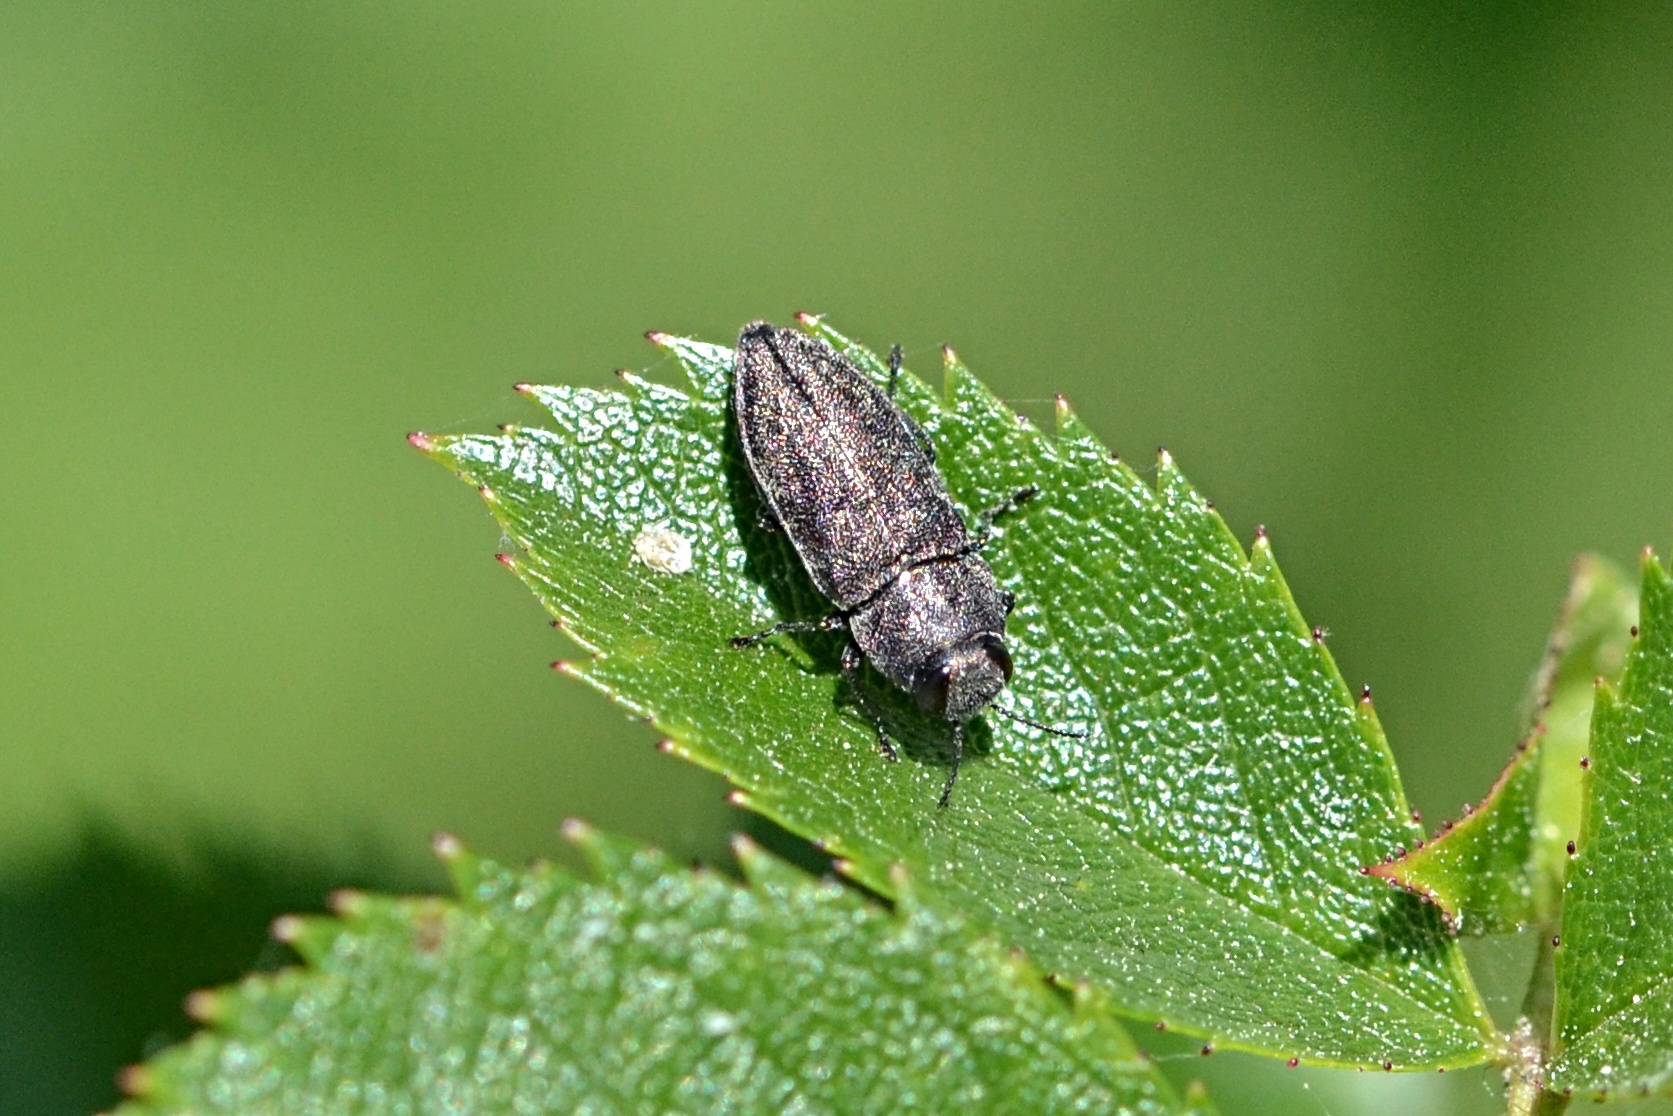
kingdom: Animalia
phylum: Arthropoda
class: Insecta
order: Coleoptera
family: Buprestidae
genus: Anthaxia
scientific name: Anthaxia morio
